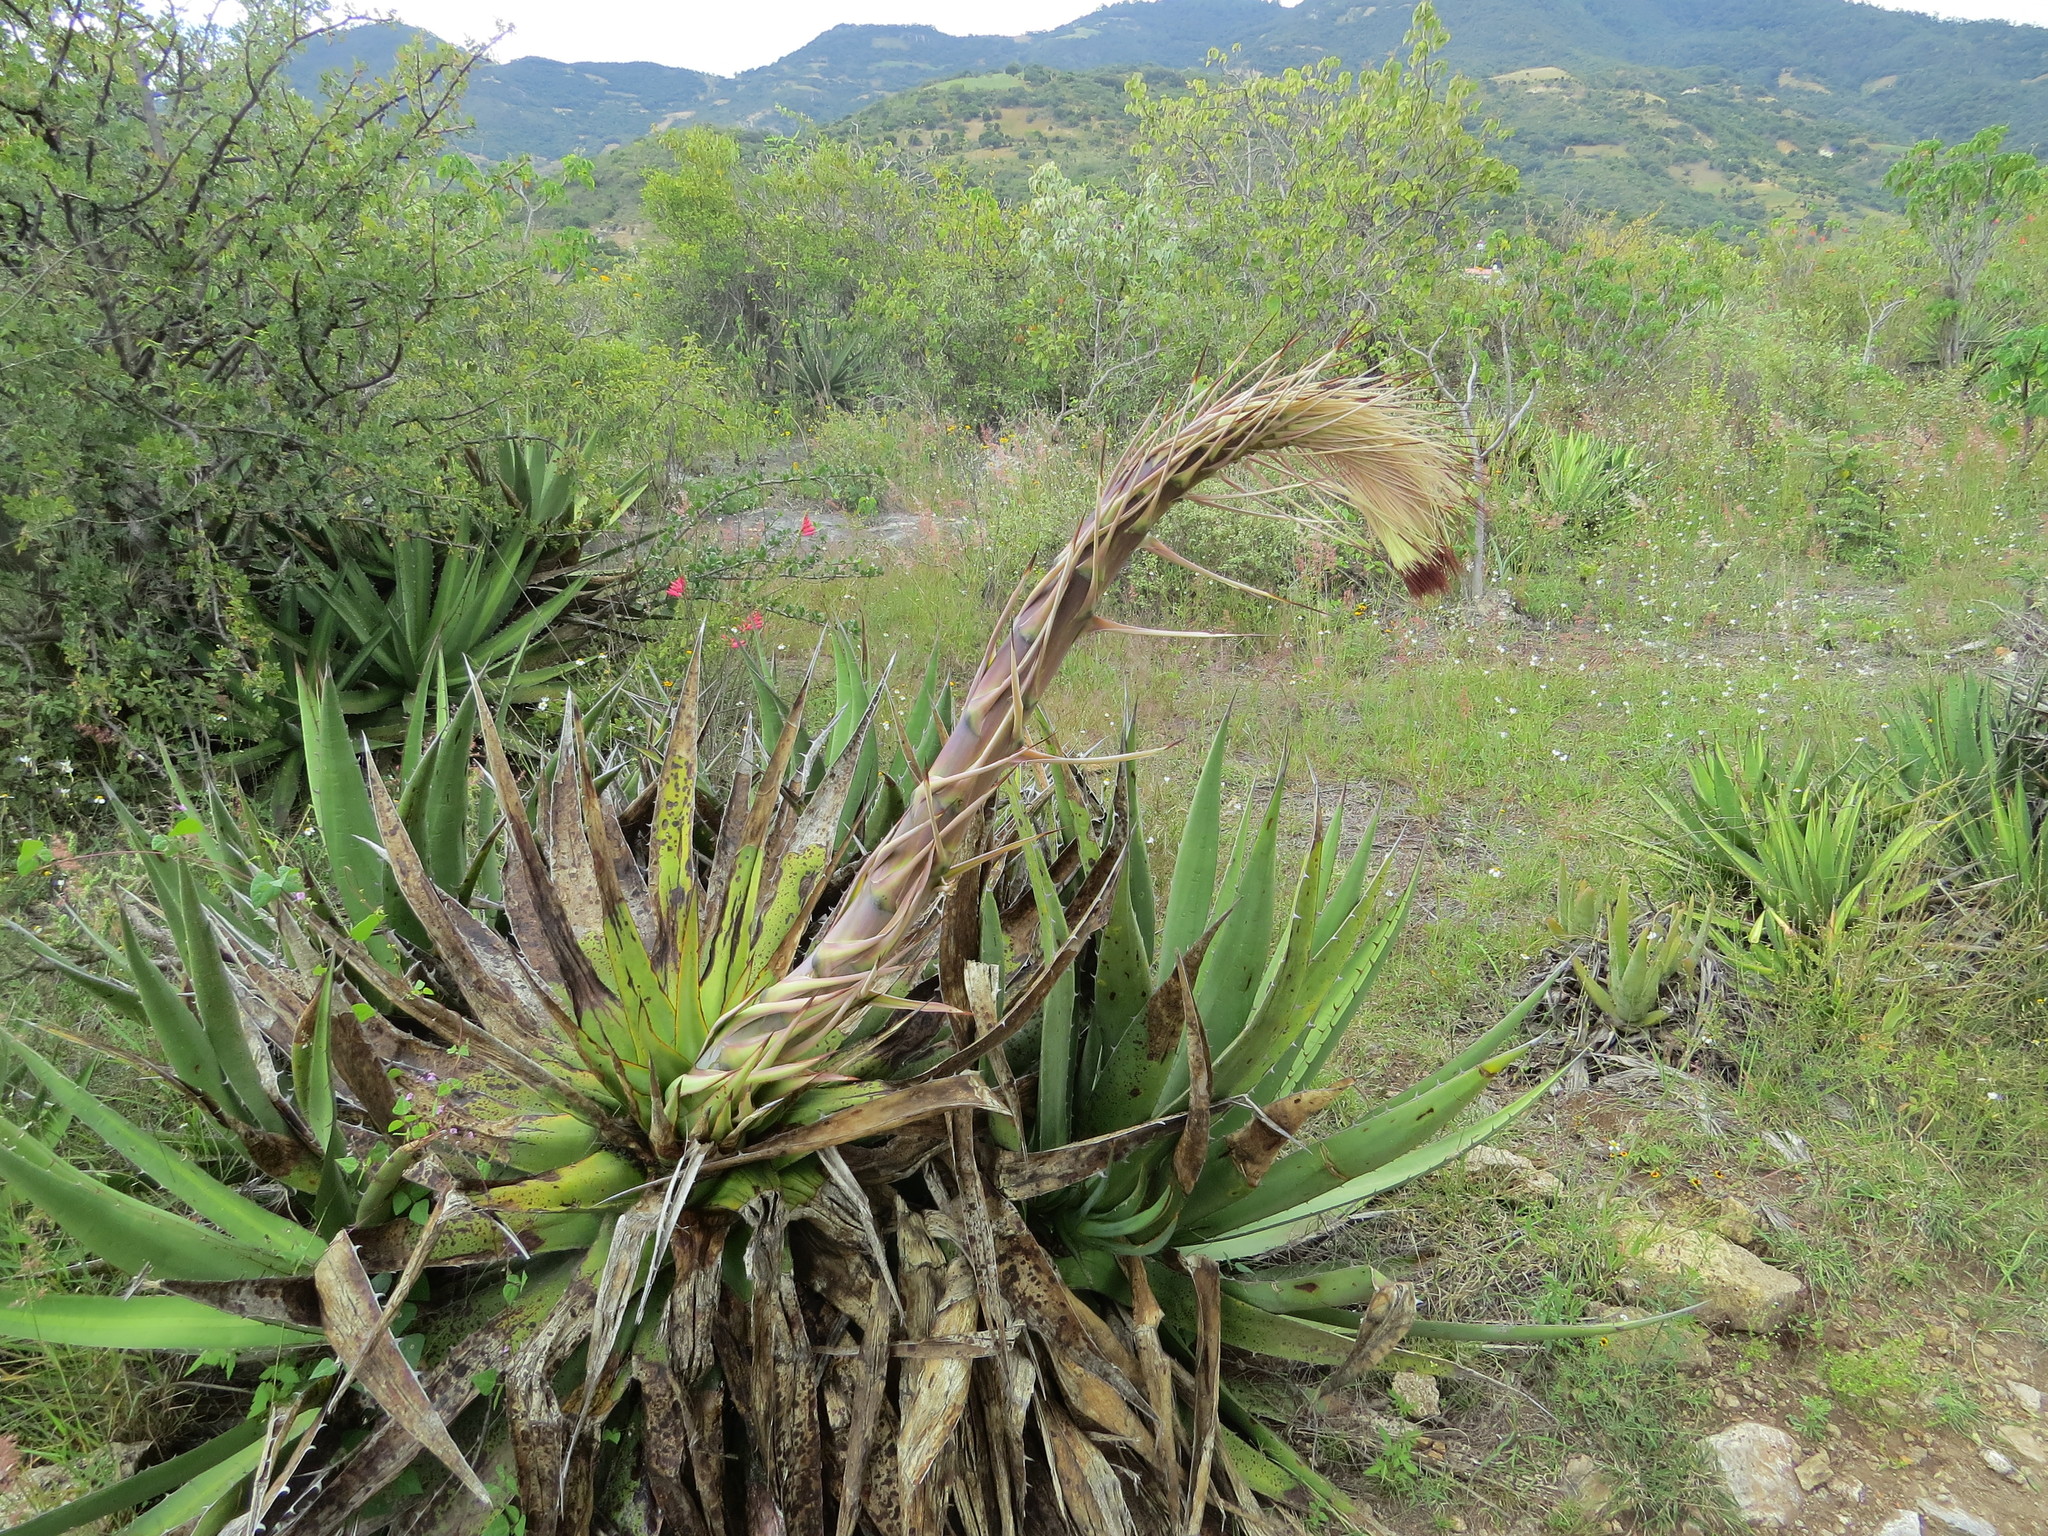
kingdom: Plantae
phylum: Tracheophyta
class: Liliopsida
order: Asparagales
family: Asparagaceae
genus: Agave
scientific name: Agave kerchovei
